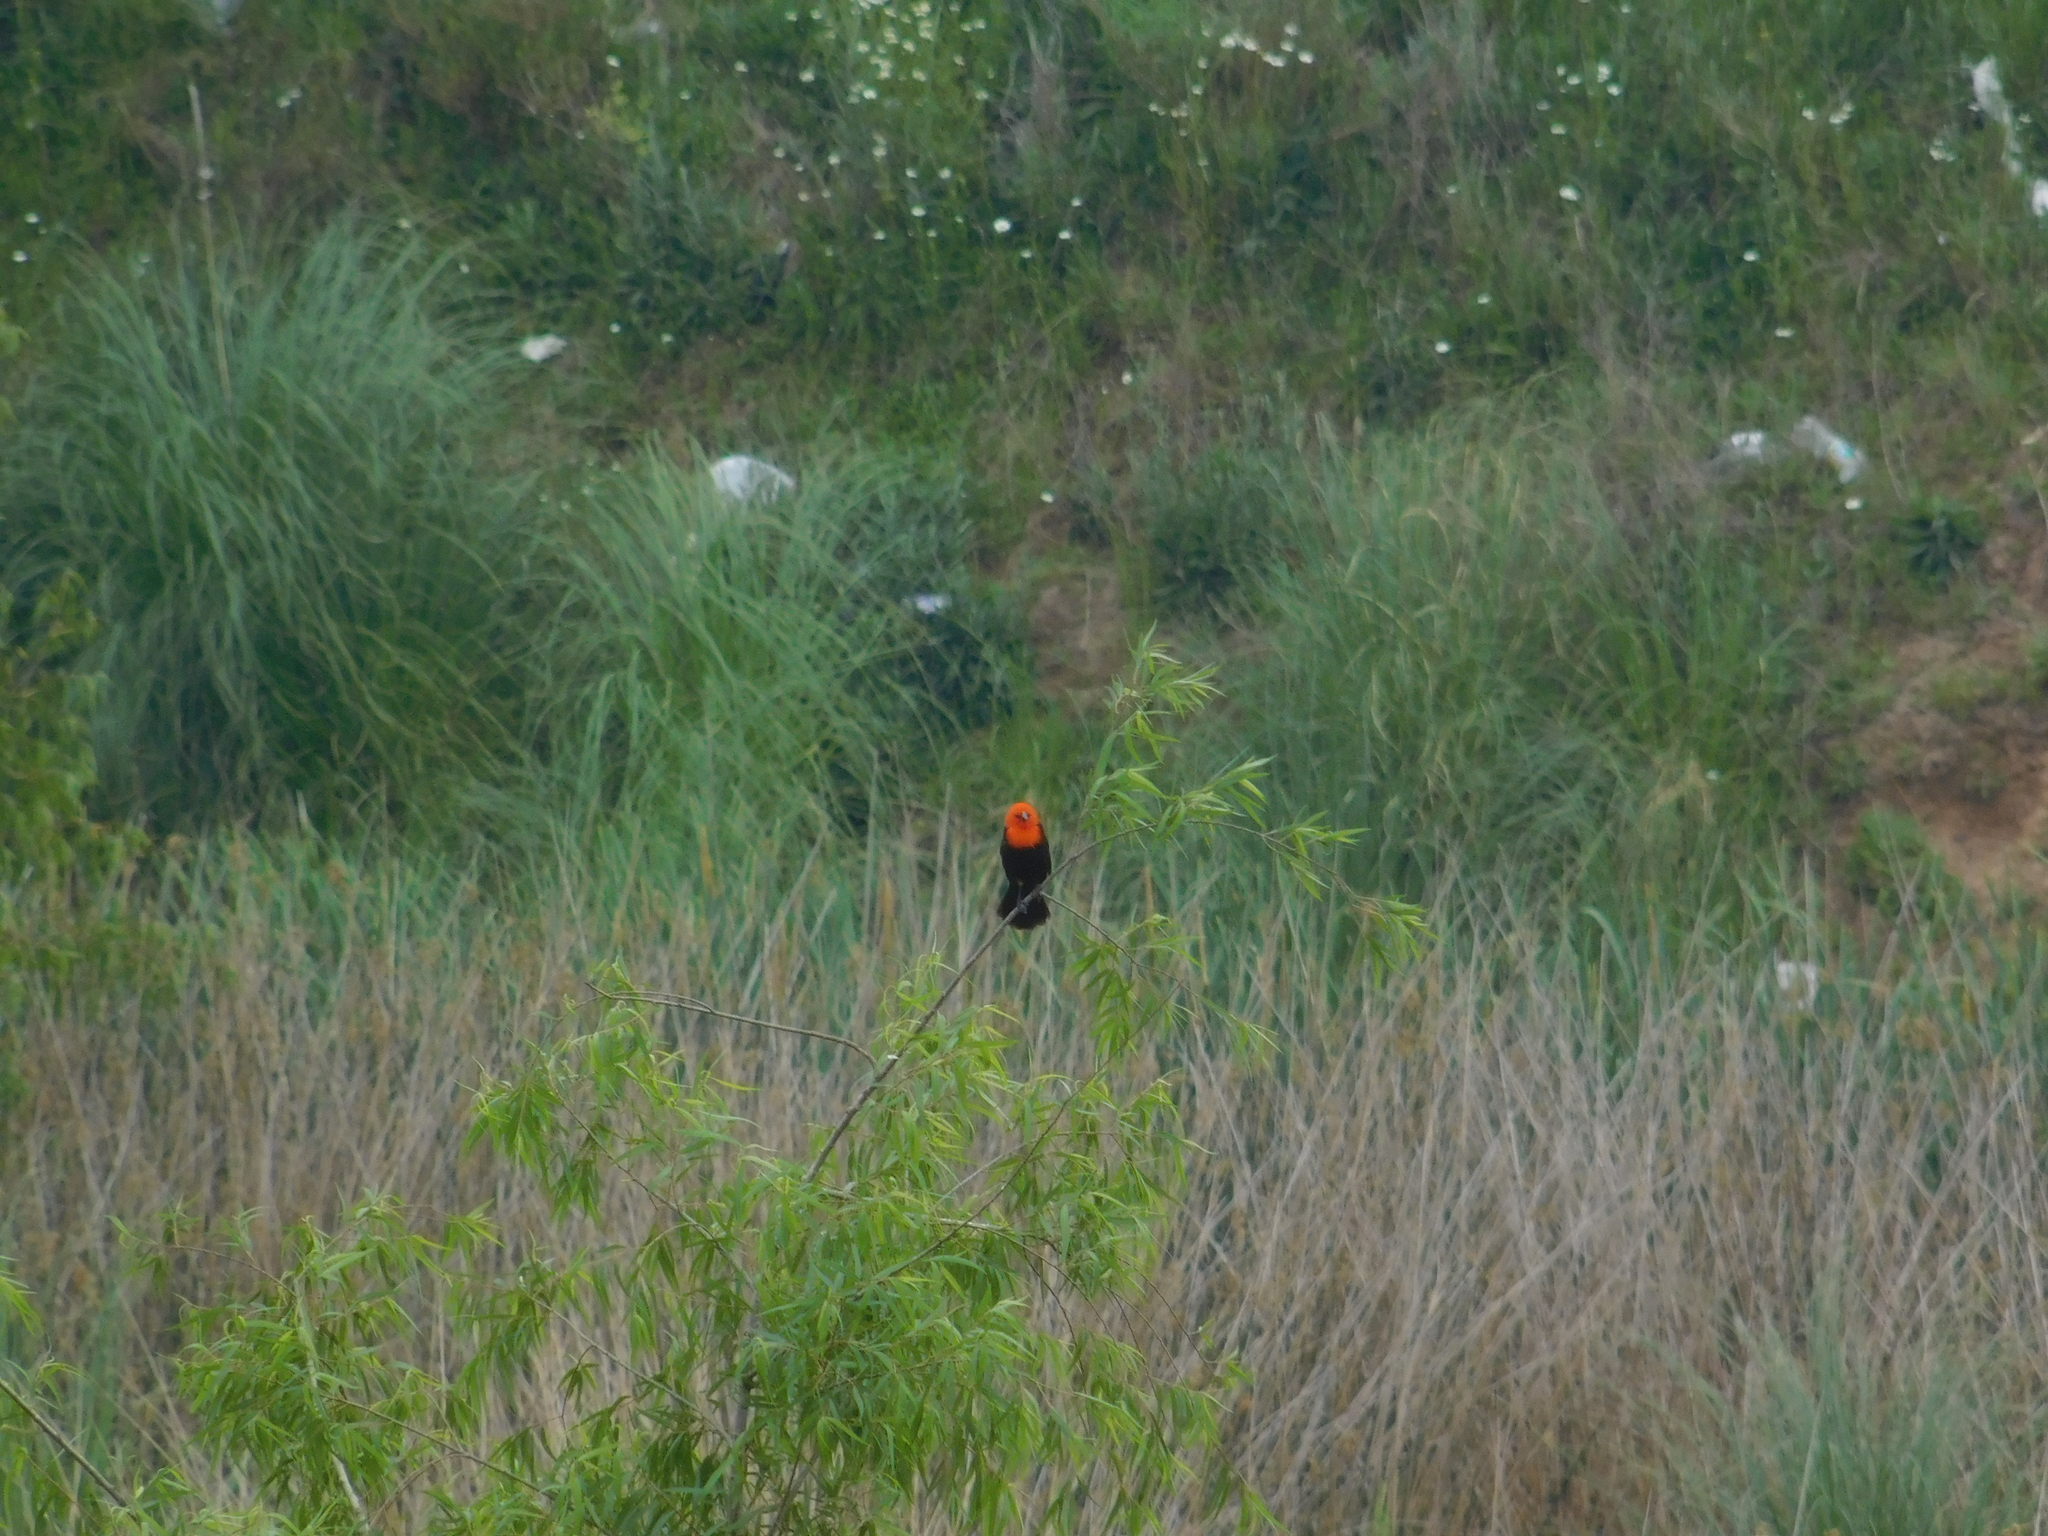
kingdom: Animalia
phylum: Chordata
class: Aves
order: Passeriformes
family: Icteridae
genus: Amblyramphus
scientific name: Amblyramphus holosericeus
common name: Scarlet-headed blackbird
